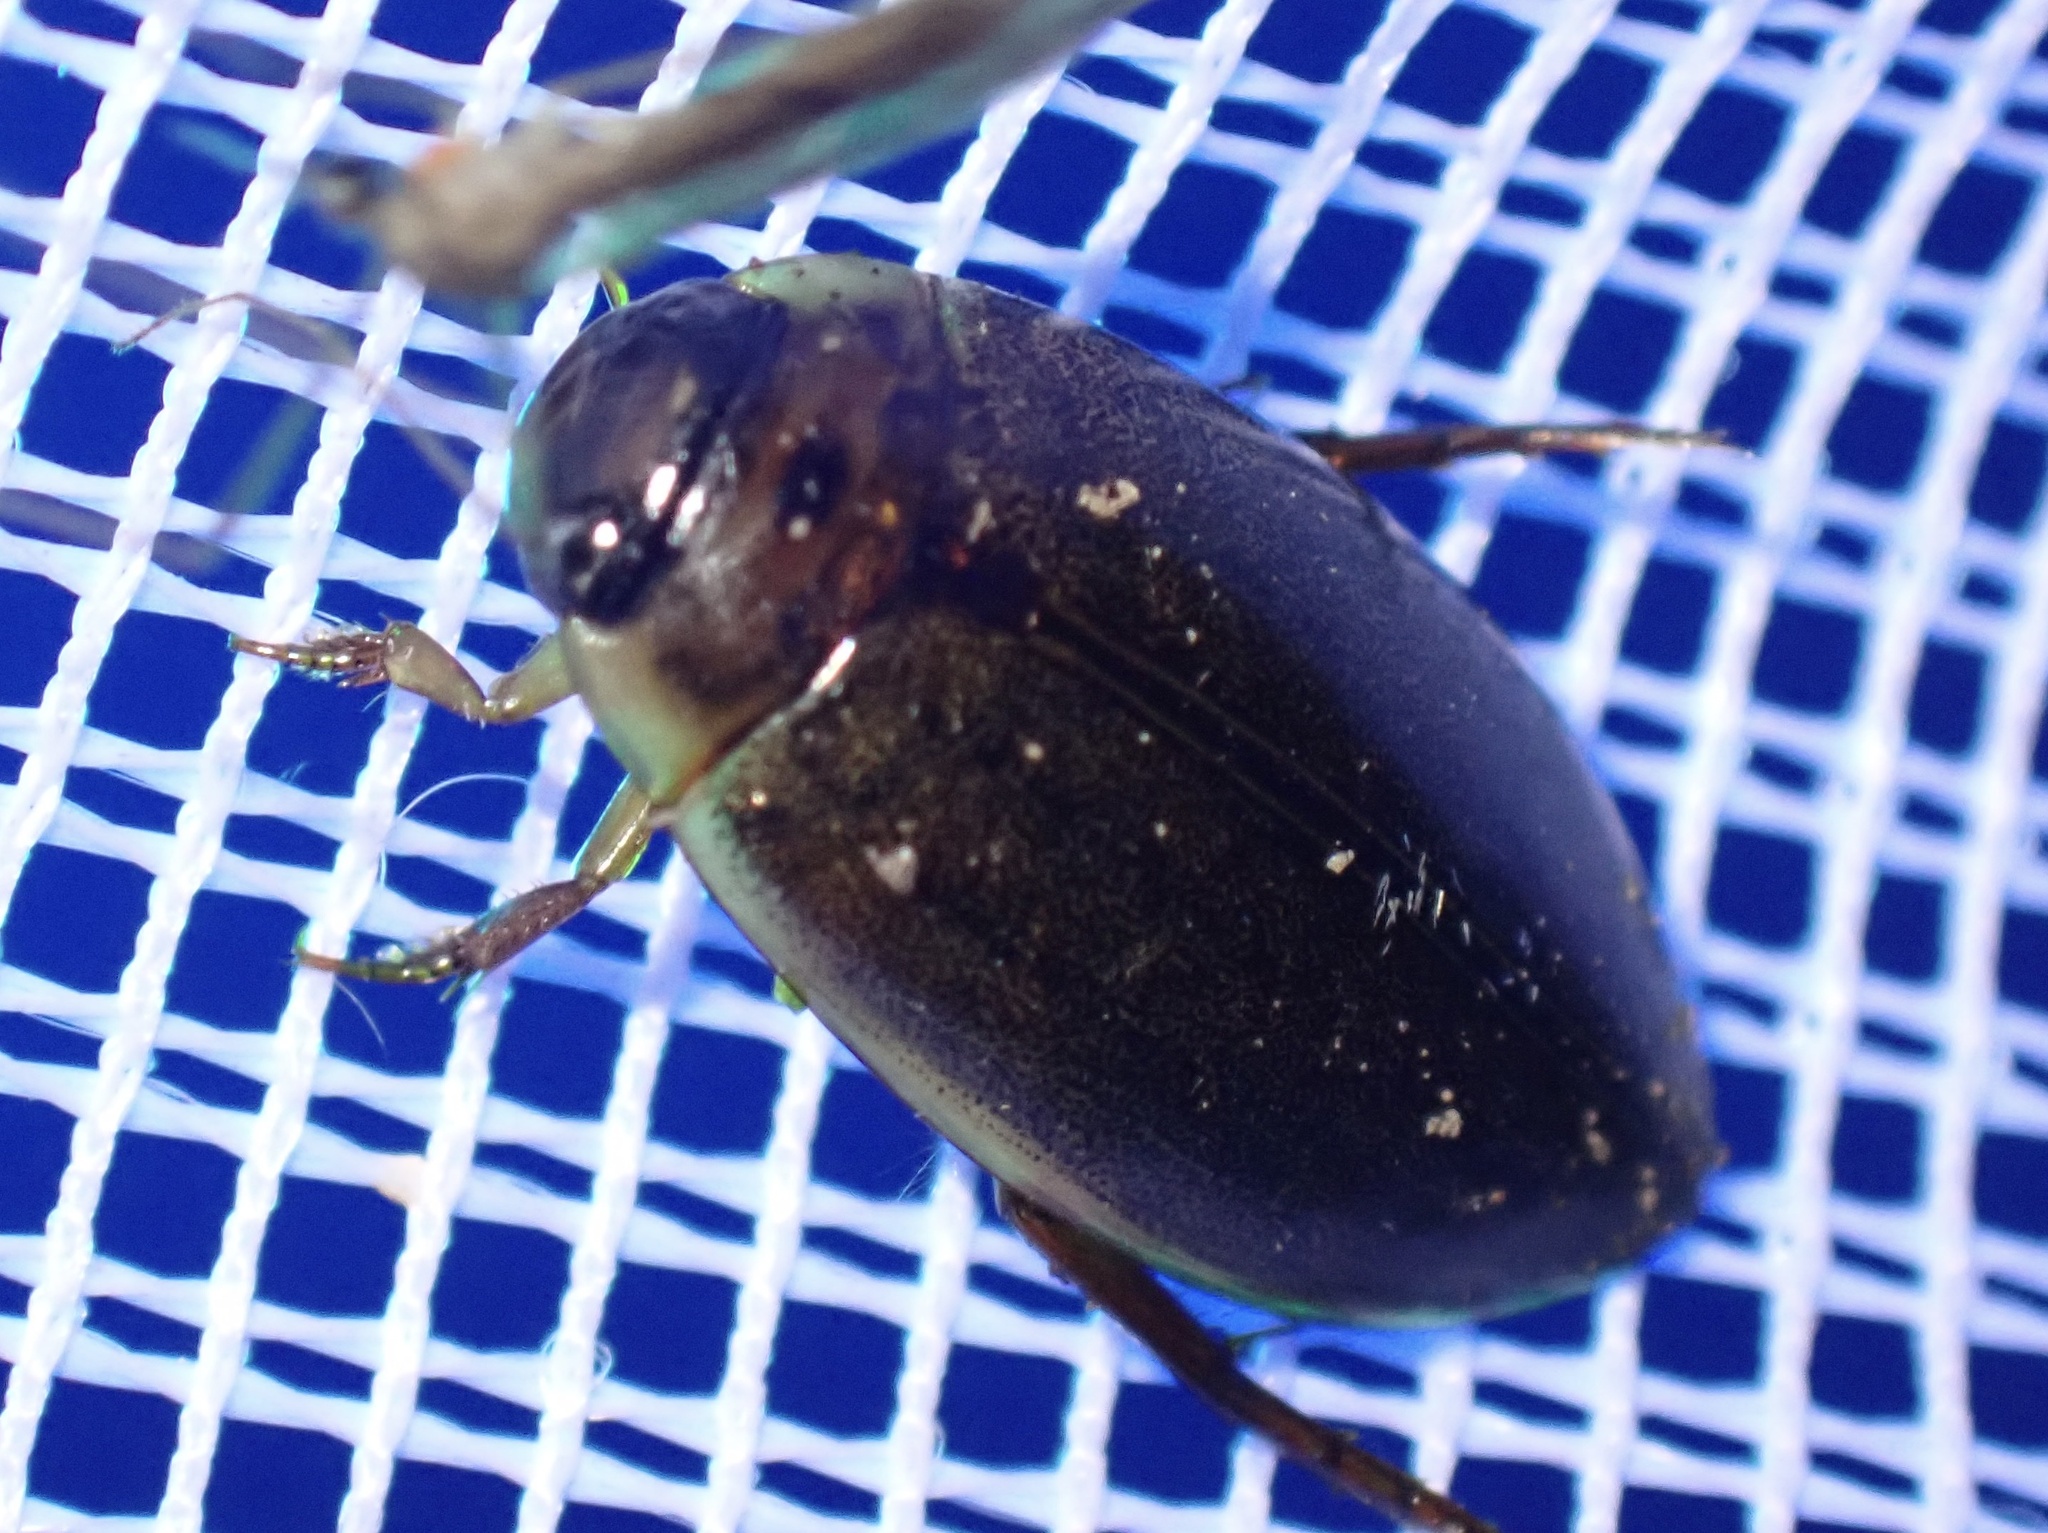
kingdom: Animalia
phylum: Arthropoda
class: Insecta
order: Coleoptera
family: Dytiscidae
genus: Rhantus
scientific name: Rhantus suturalis
